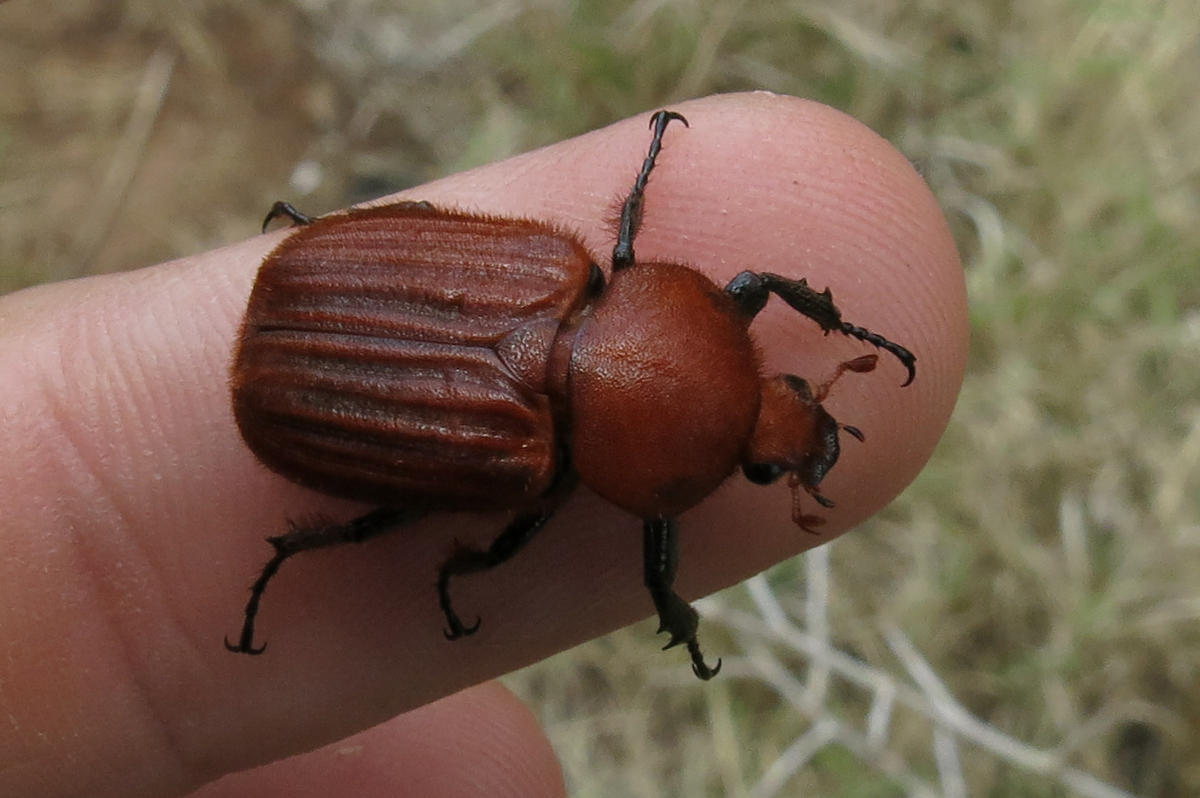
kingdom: Animalia
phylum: Arthropoda
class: Insecta
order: Coleoptera
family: Scarabaeidae
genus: Myodermum
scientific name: Myodermum rufum
